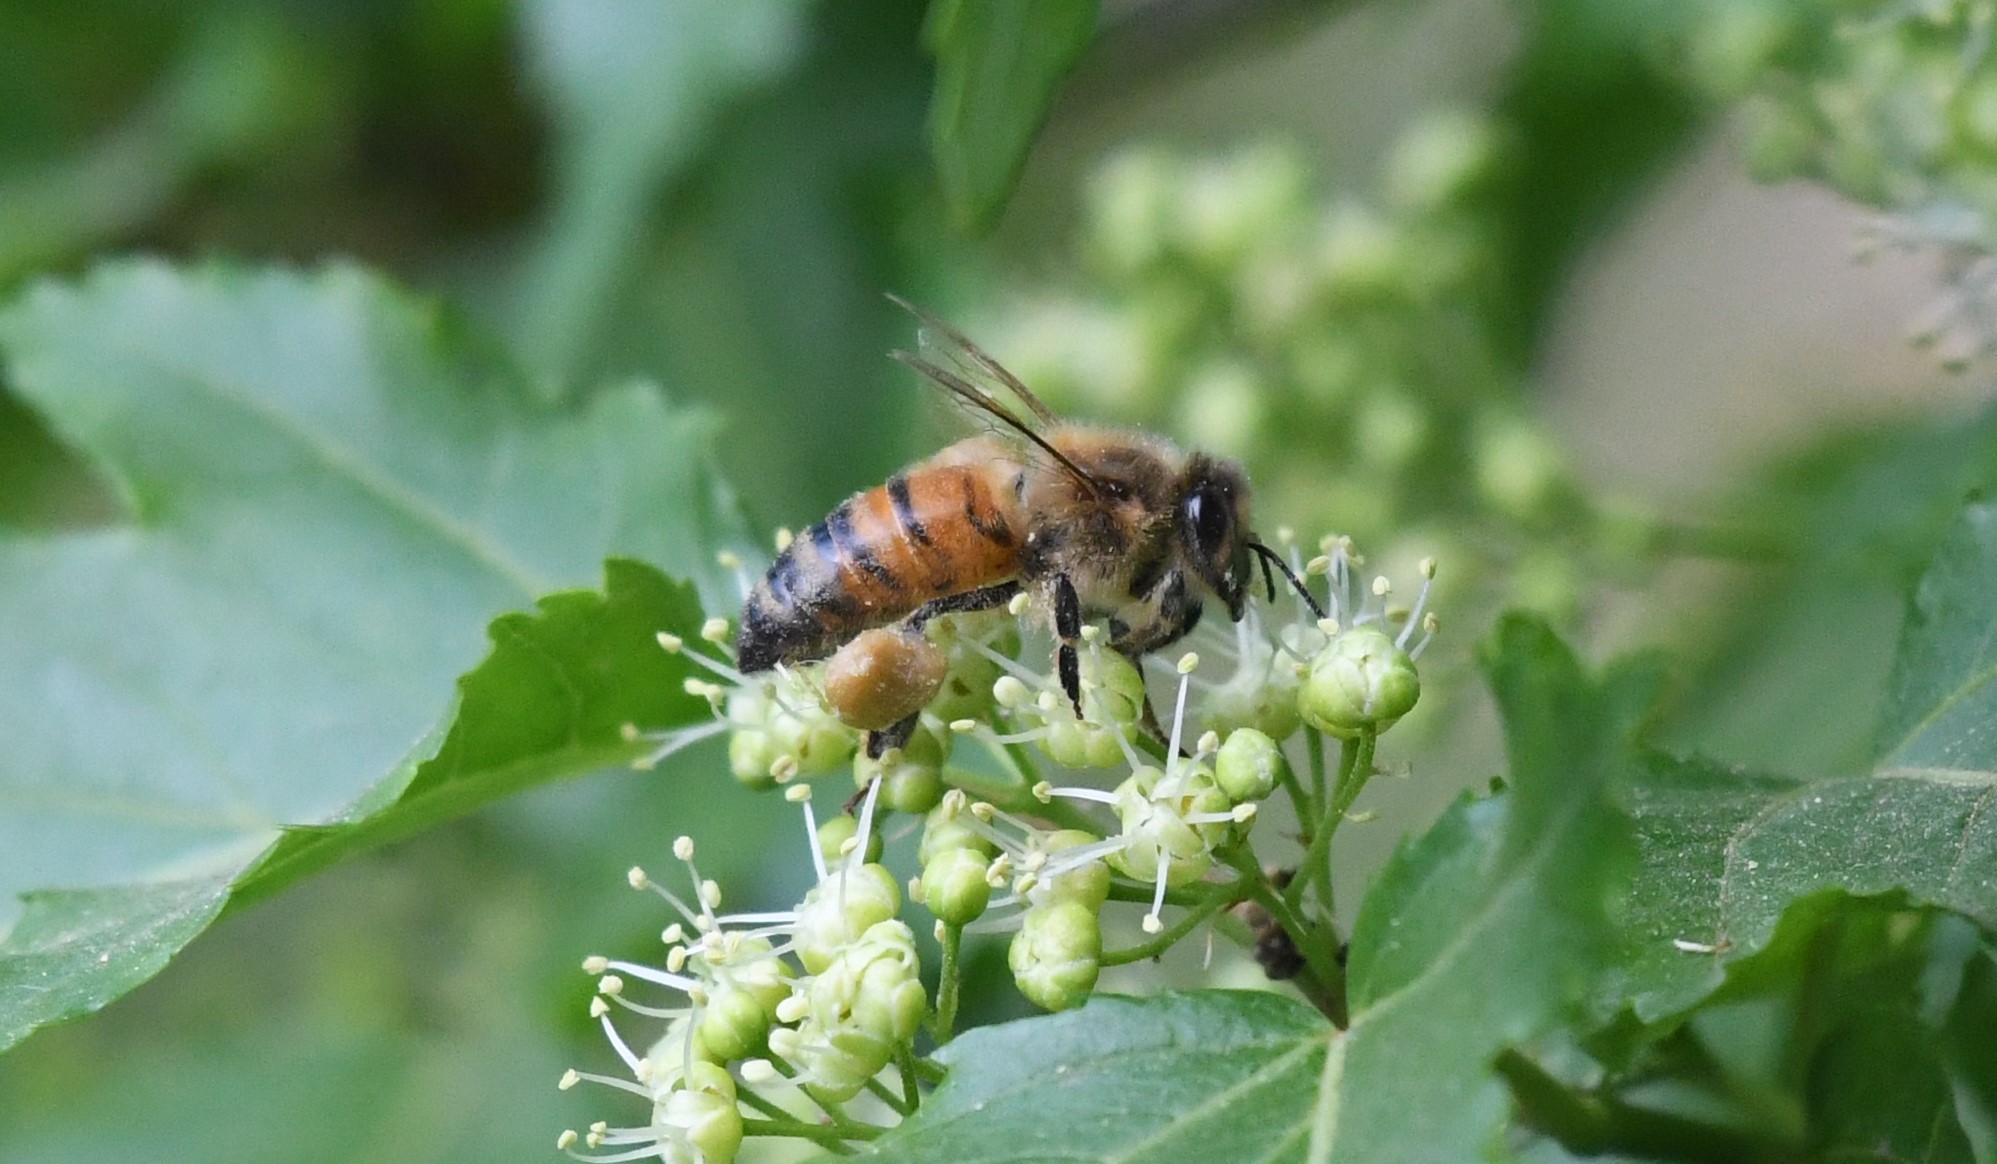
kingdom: Animalia
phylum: Arthropoda
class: Insecta
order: Hymenoptera
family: Apidae
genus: Apis
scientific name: Apis mellifera
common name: Honey bee
